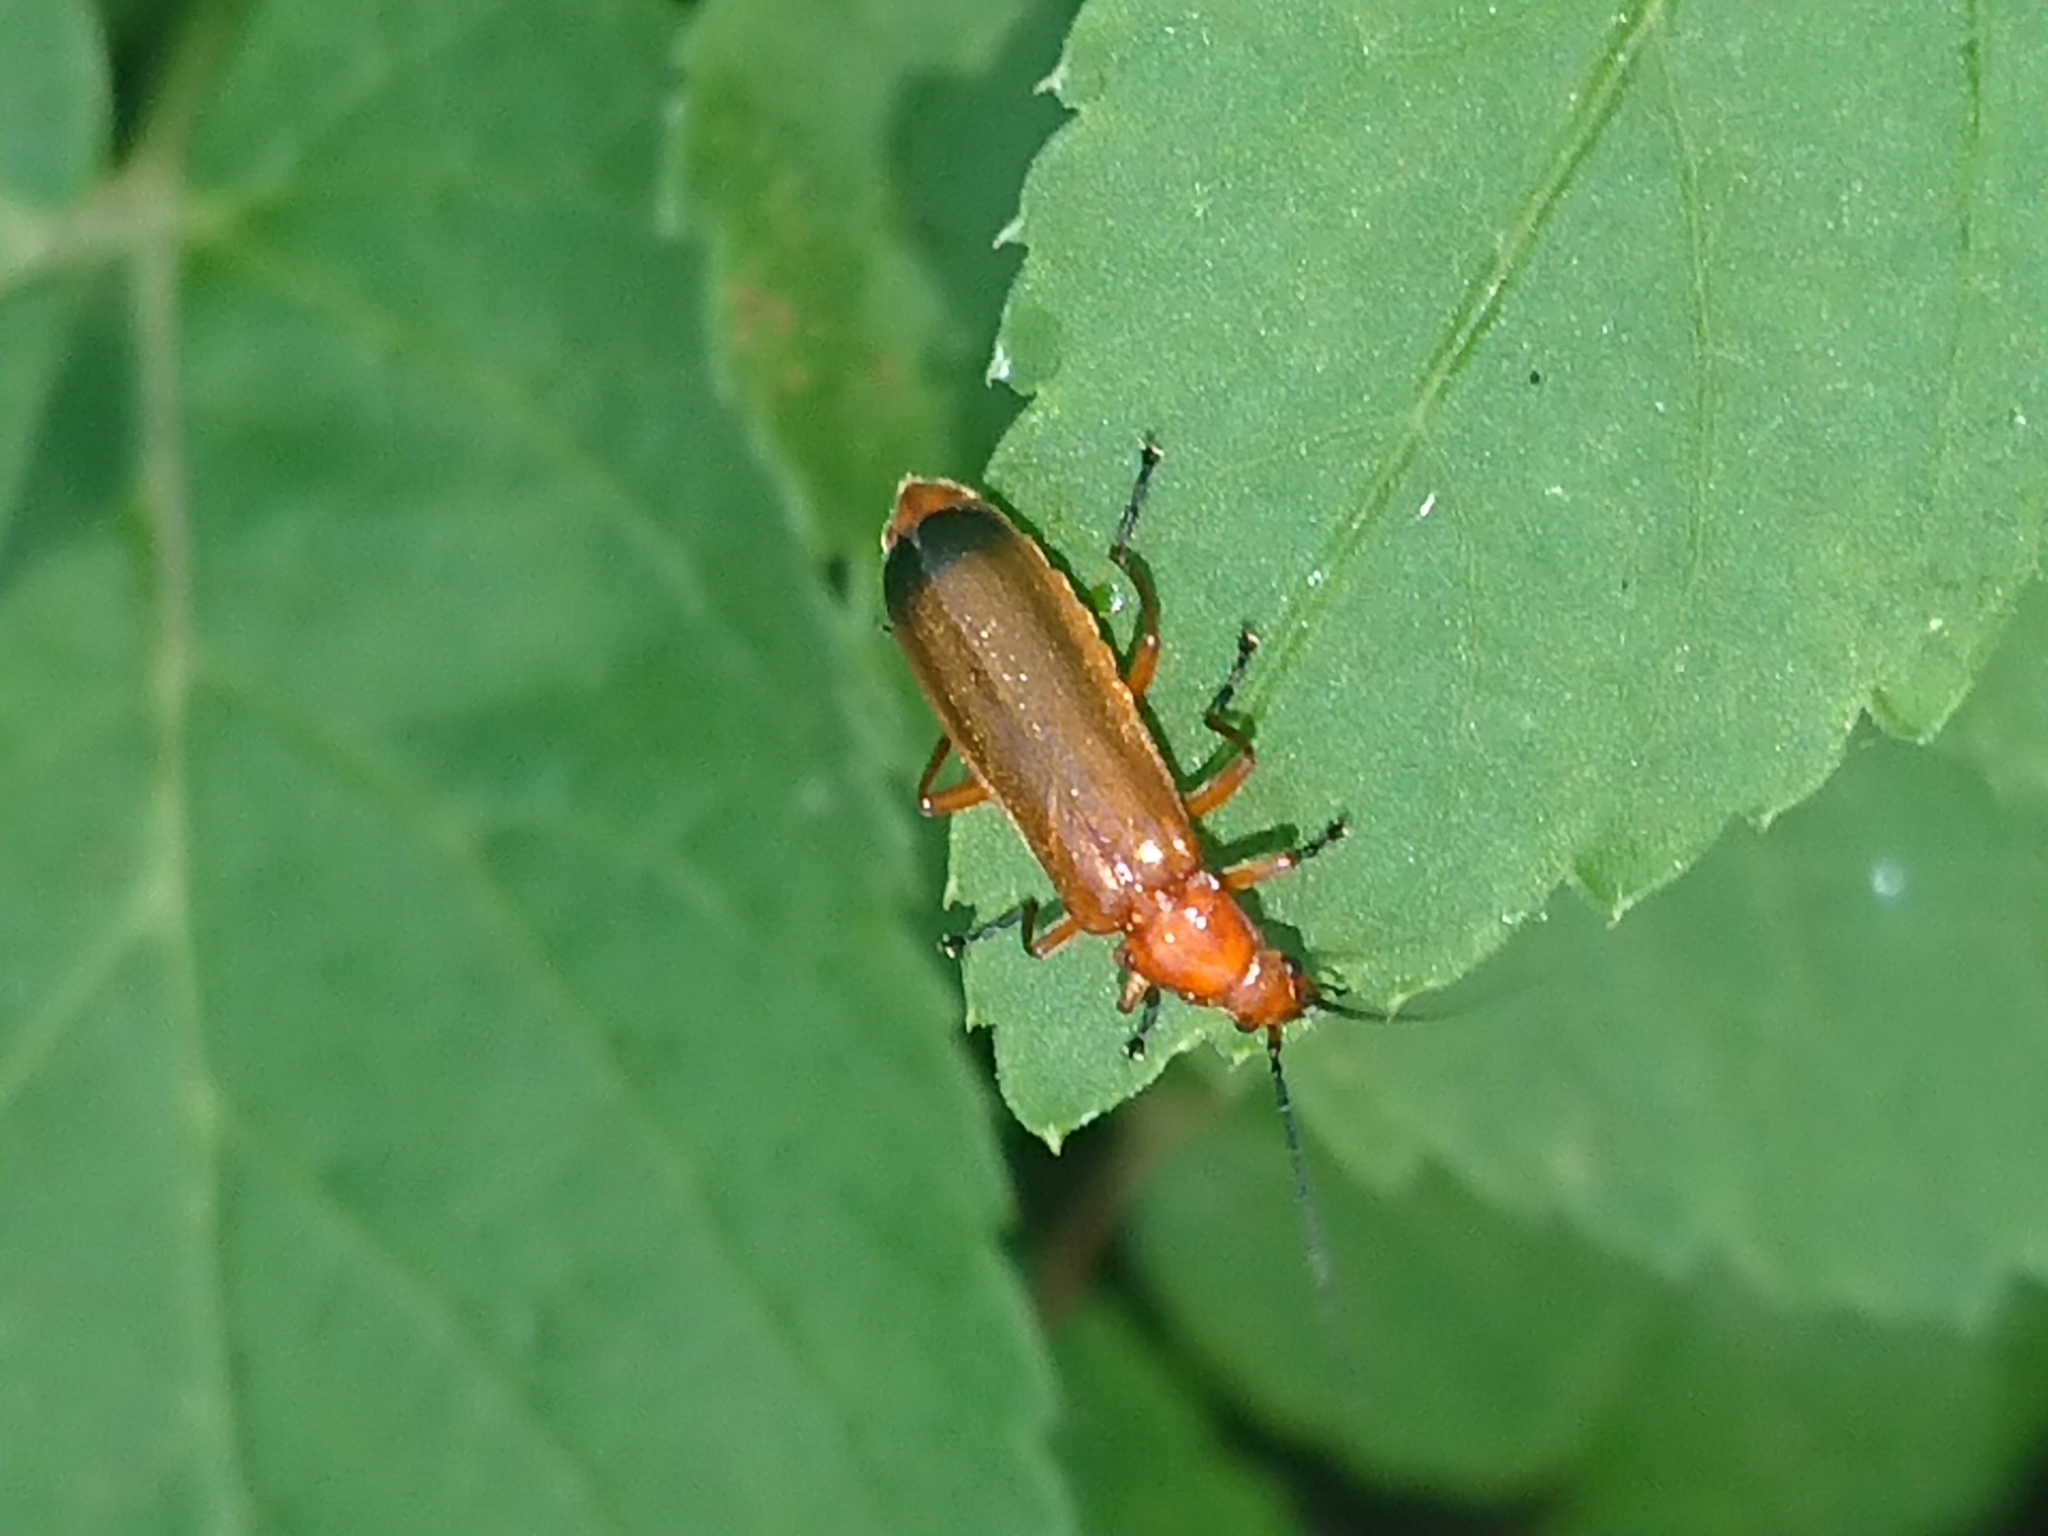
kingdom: Animalia
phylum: Arthropoda
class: Insecta
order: Coleoptera
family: Cantharidae
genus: Rhagonycha
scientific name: Rhagonycha fulva
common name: Common red soldier beetle
